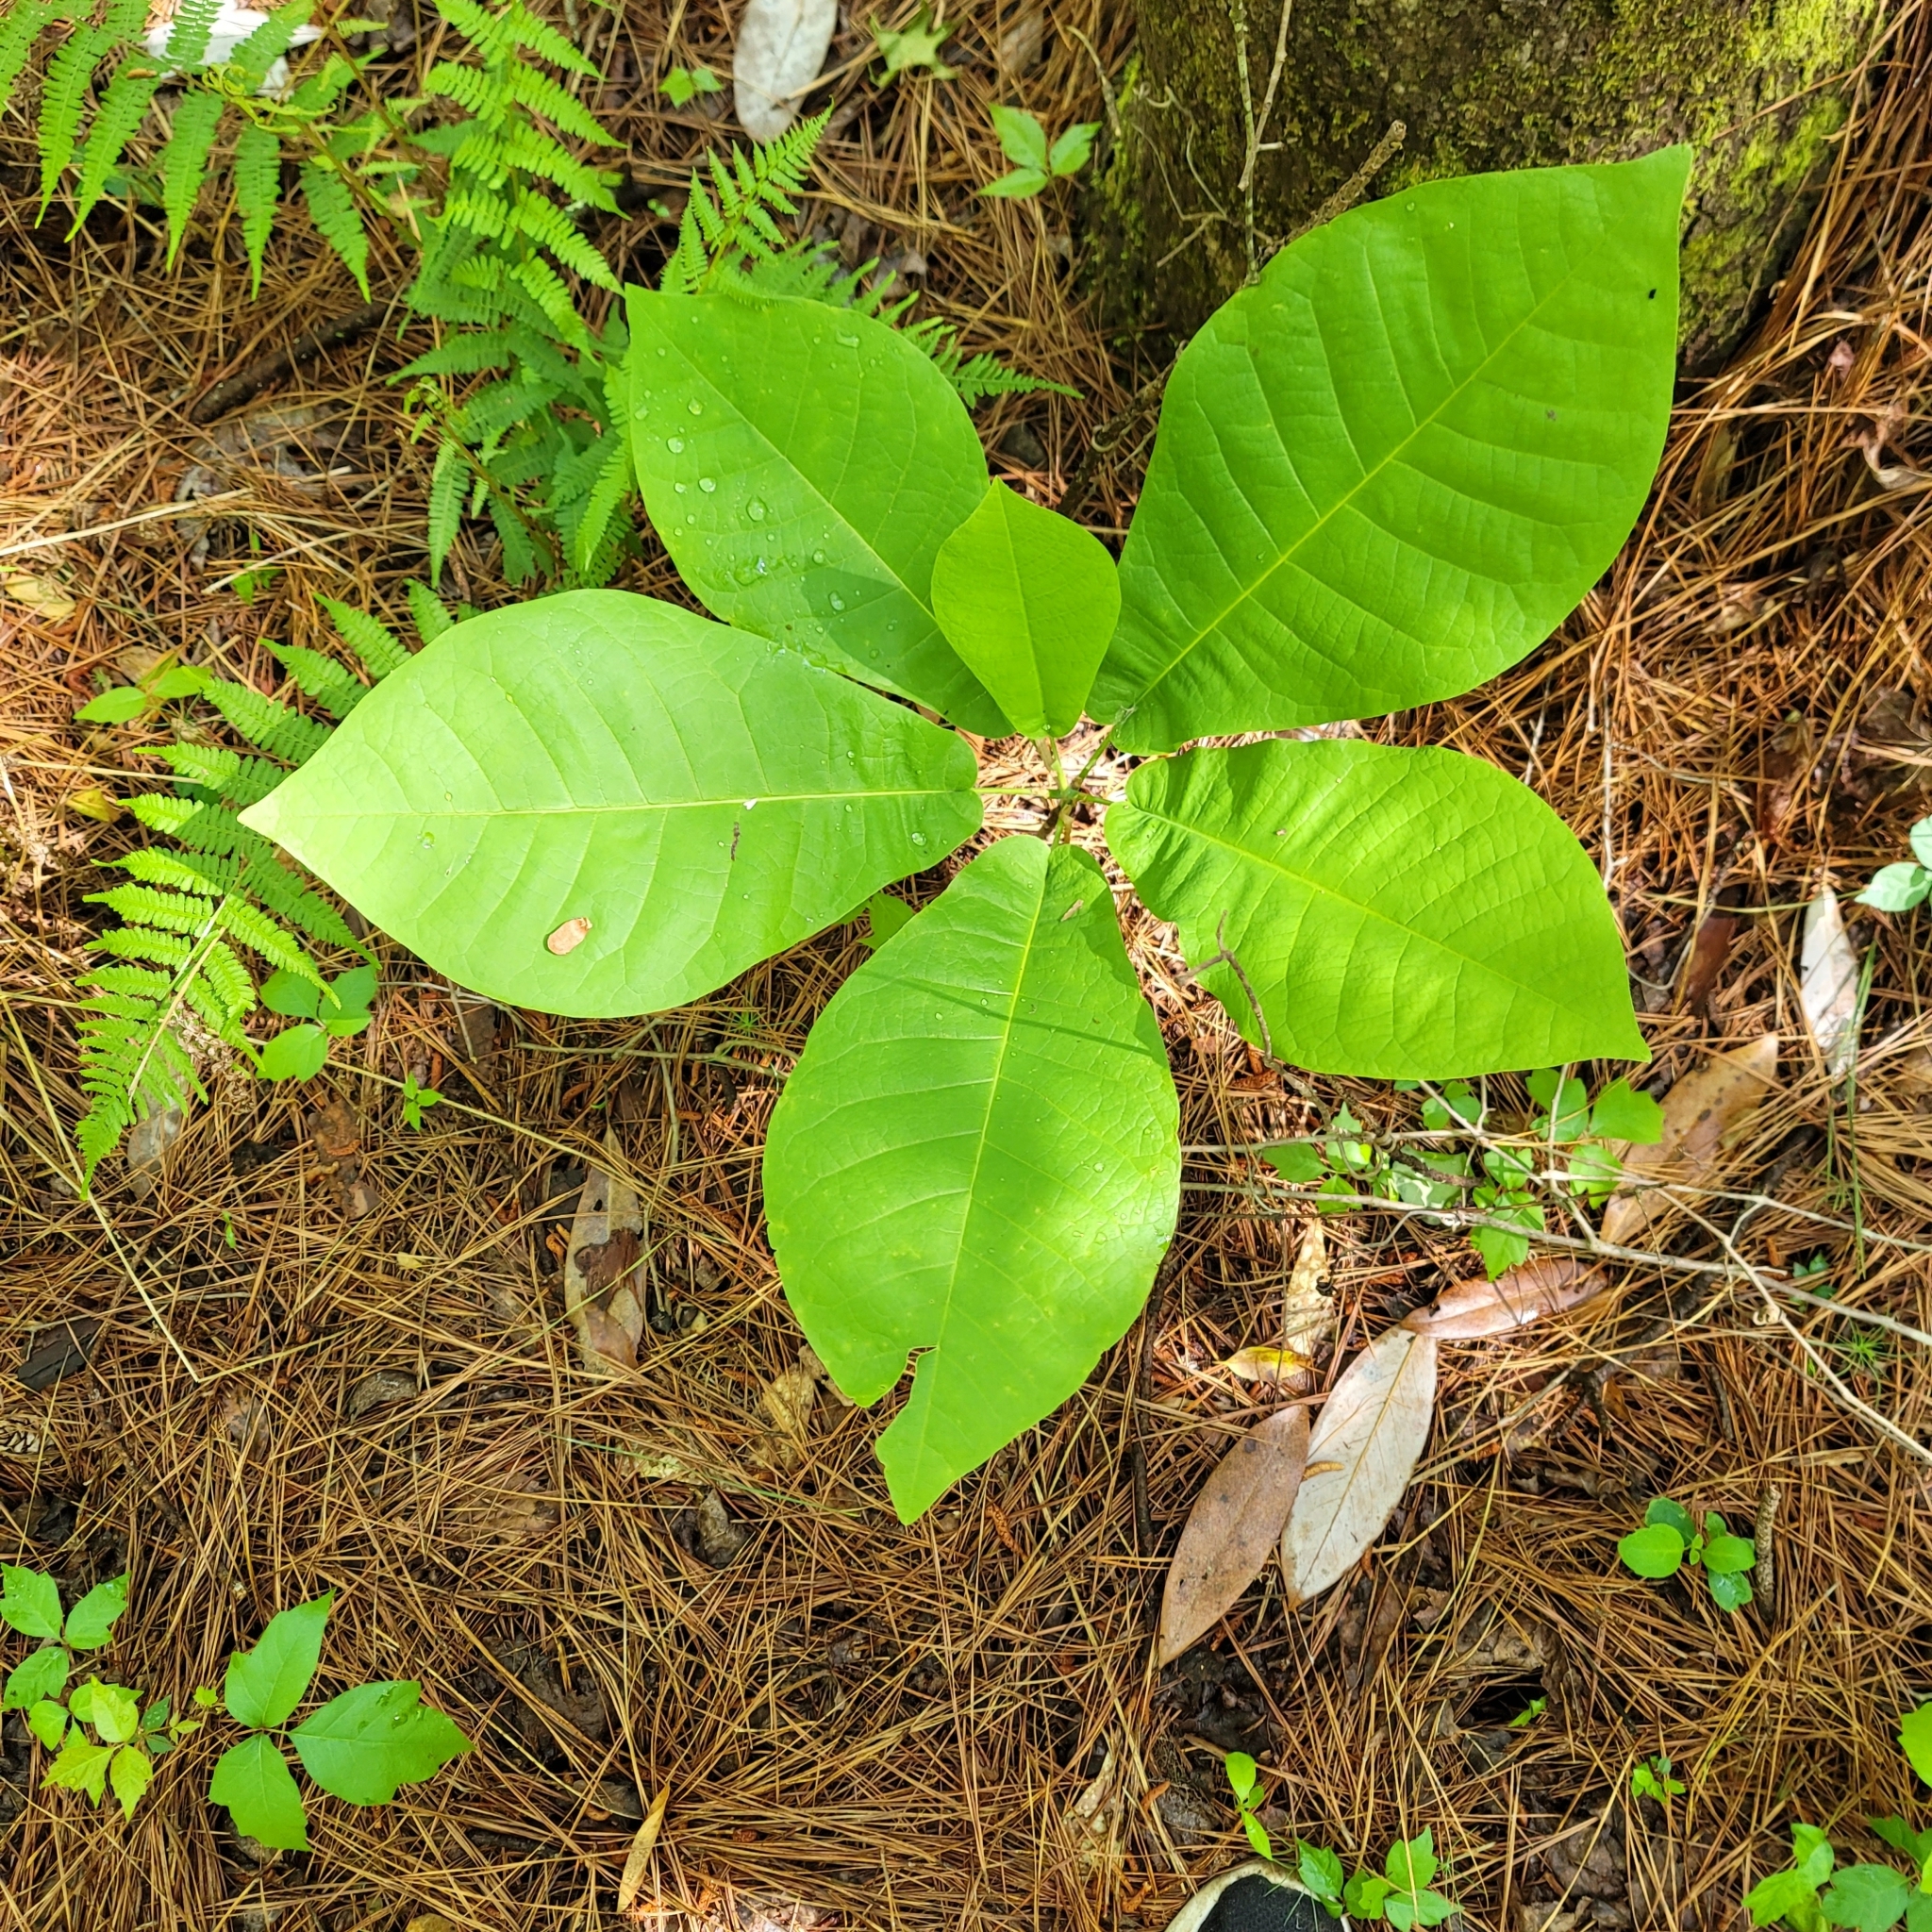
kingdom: Plantae
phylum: Tracheophyta
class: Magnoliopsida
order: Magnoliales
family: Magnoliaceae
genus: Magnolia
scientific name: Magnolia macrophylla
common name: Big-leaf magnolia
